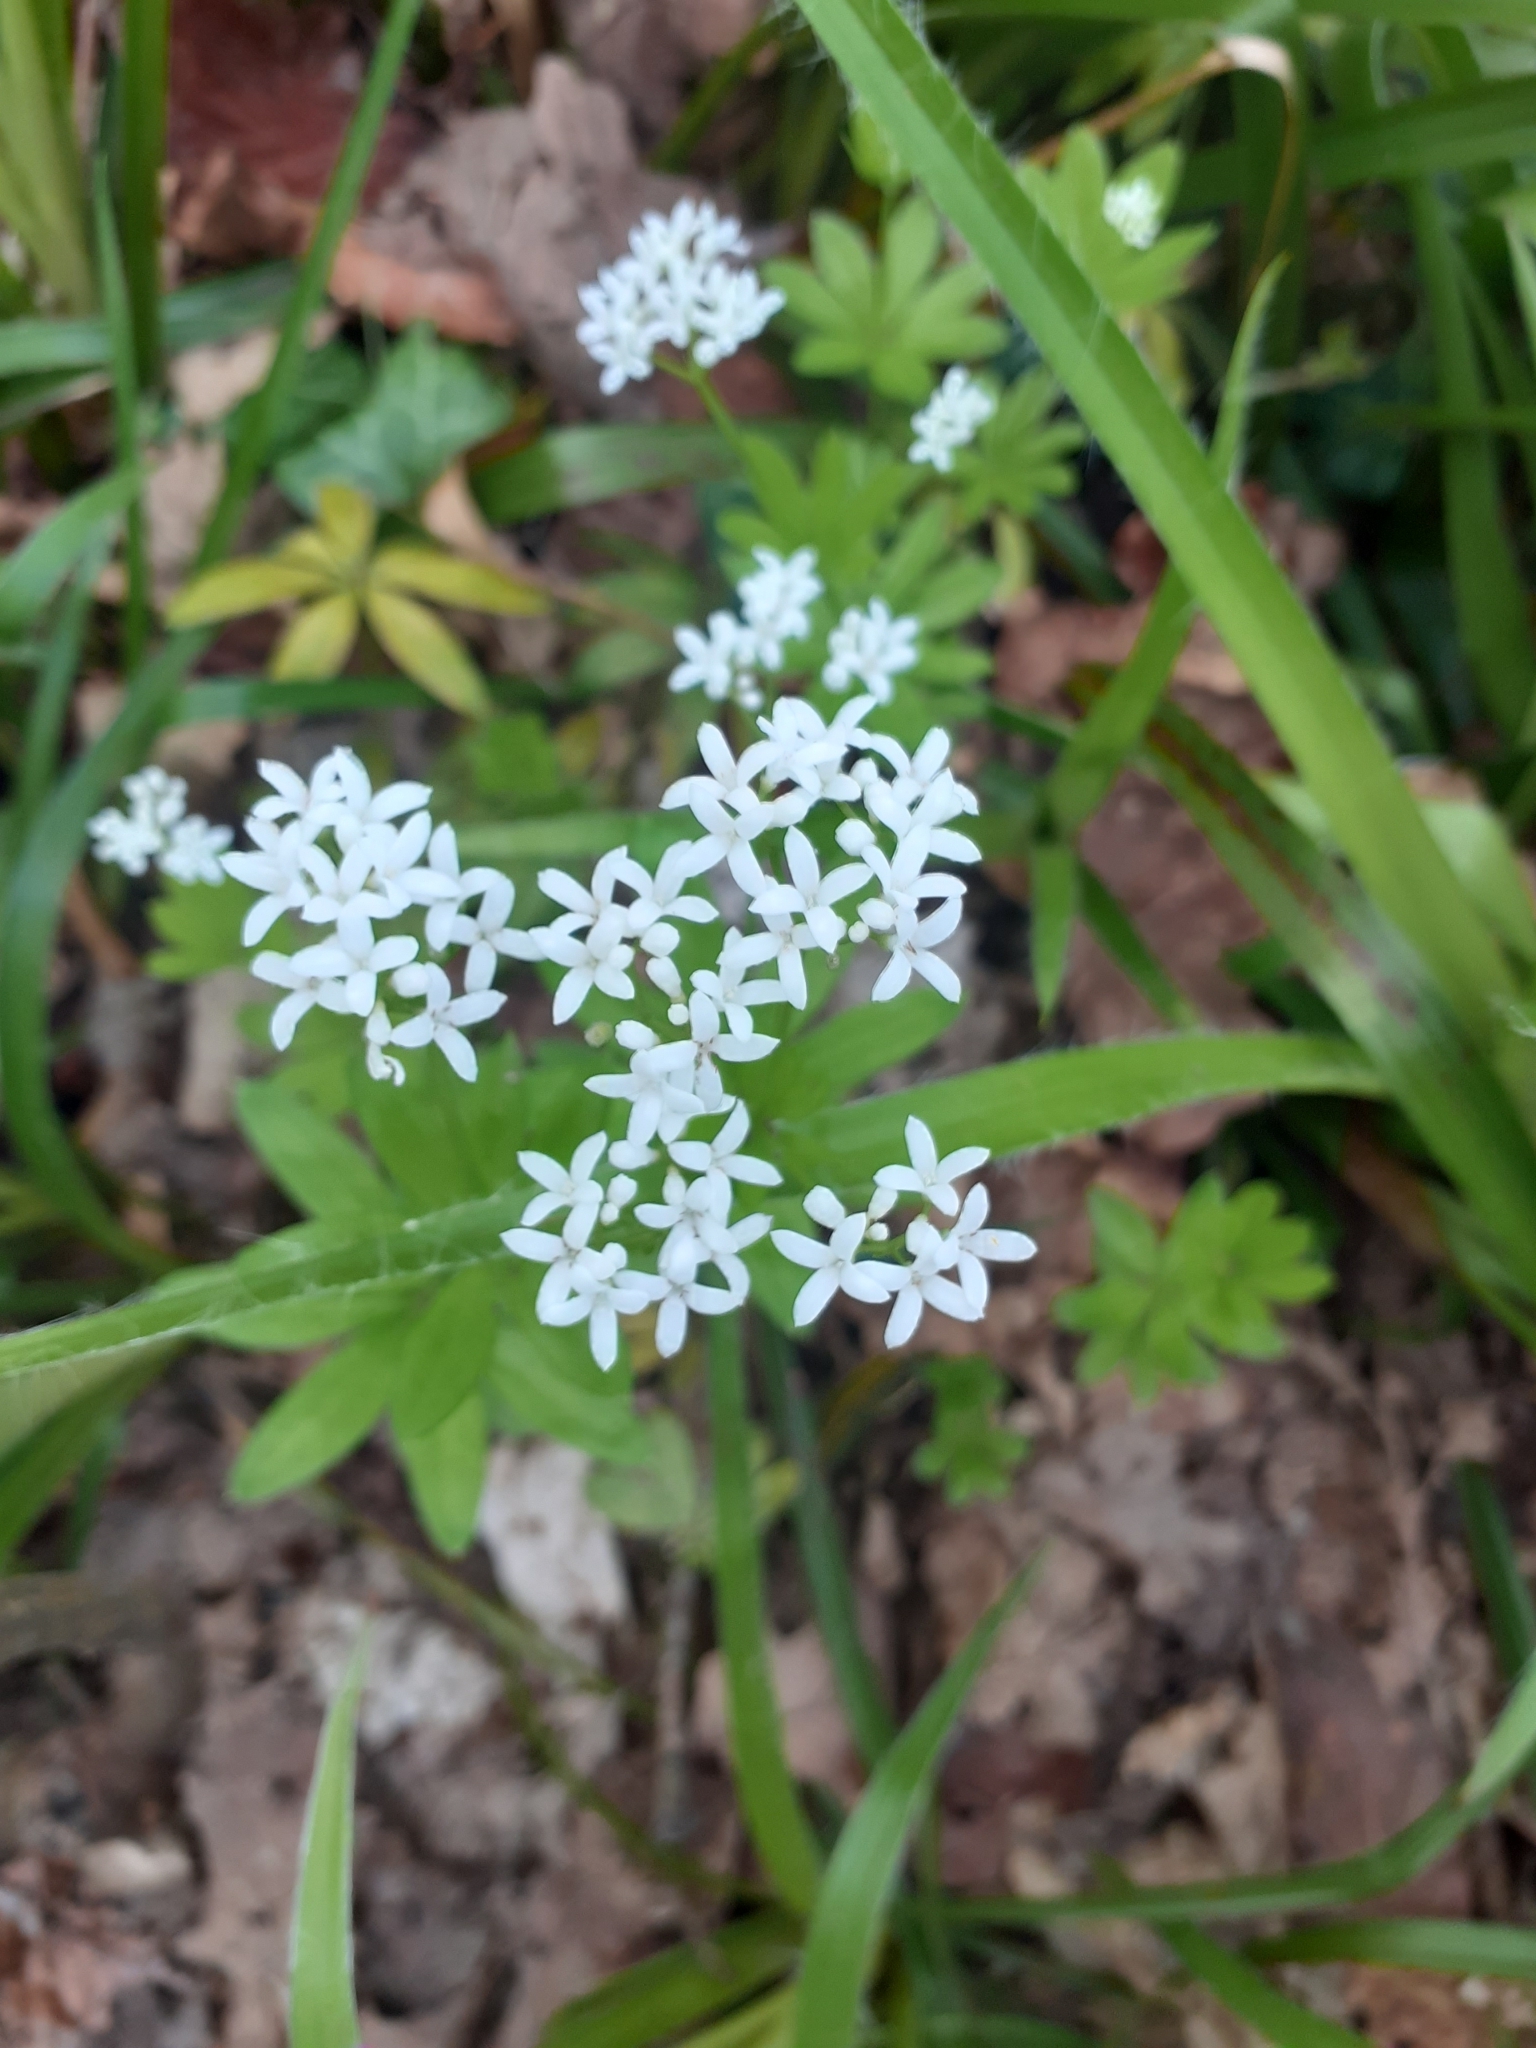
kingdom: Plantae
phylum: Tracheophyta
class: Magnoliopsida
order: Gentianales
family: Rubiaceae
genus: Galium
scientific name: Galium odoratum
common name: Sweet woodruff
